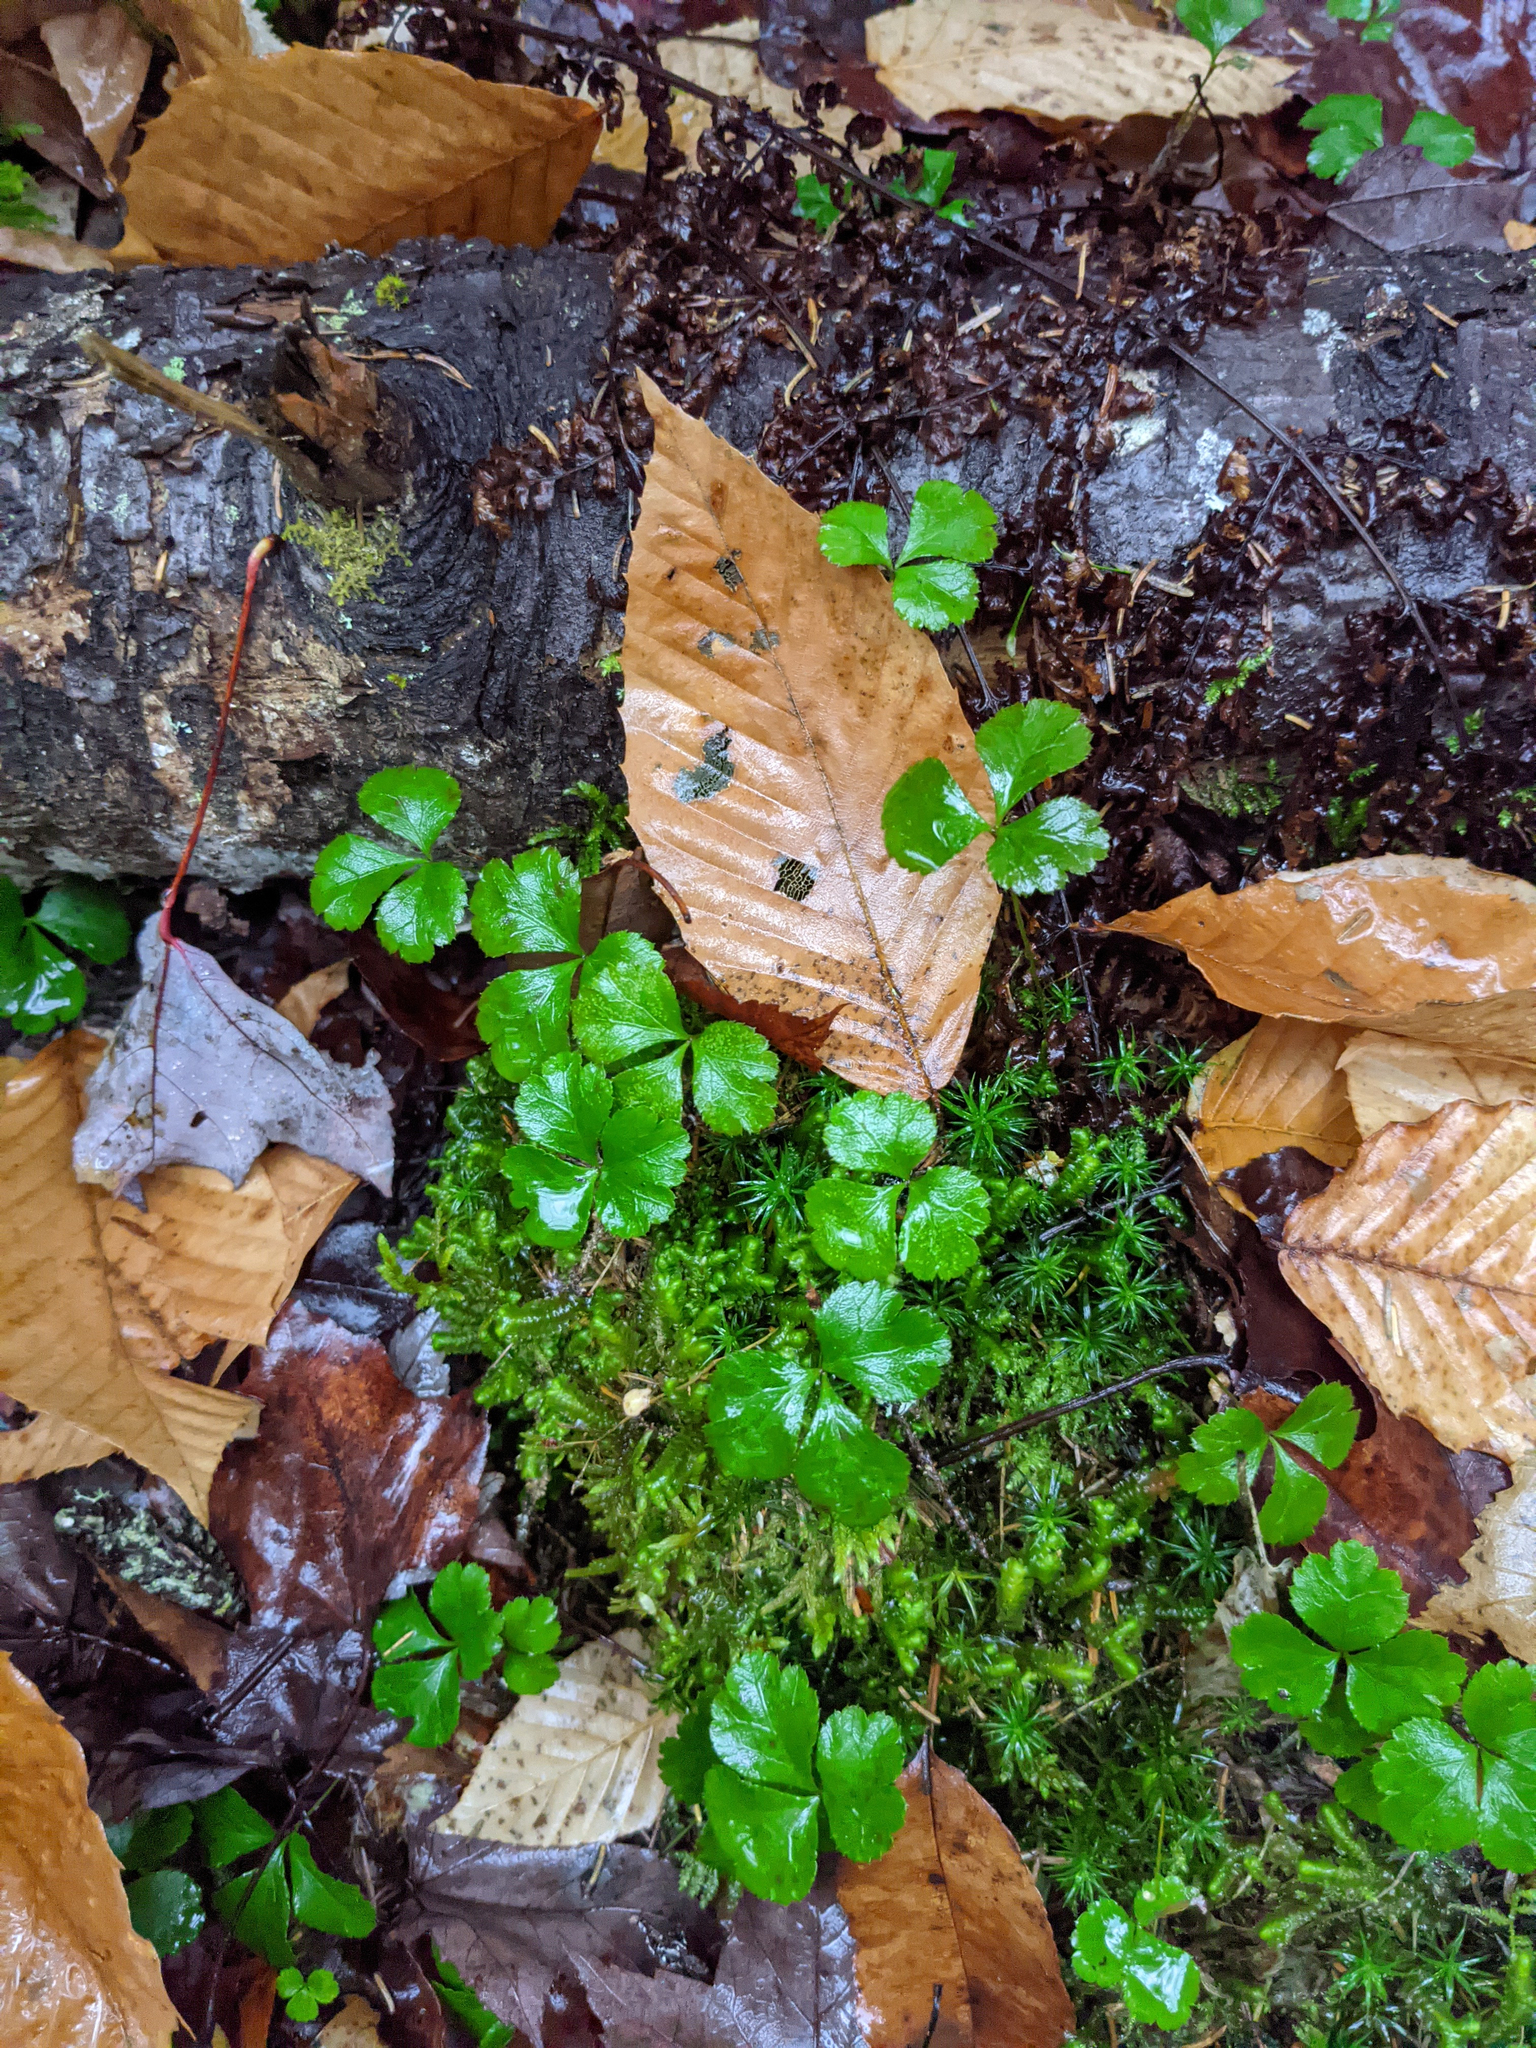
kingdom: Plantae
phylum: Tracheophyta
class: Magnoliopsida
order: Ranunculales
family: Ranunculaceae
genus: Coptis
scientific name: Coptis trifolia
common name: Canker-root
